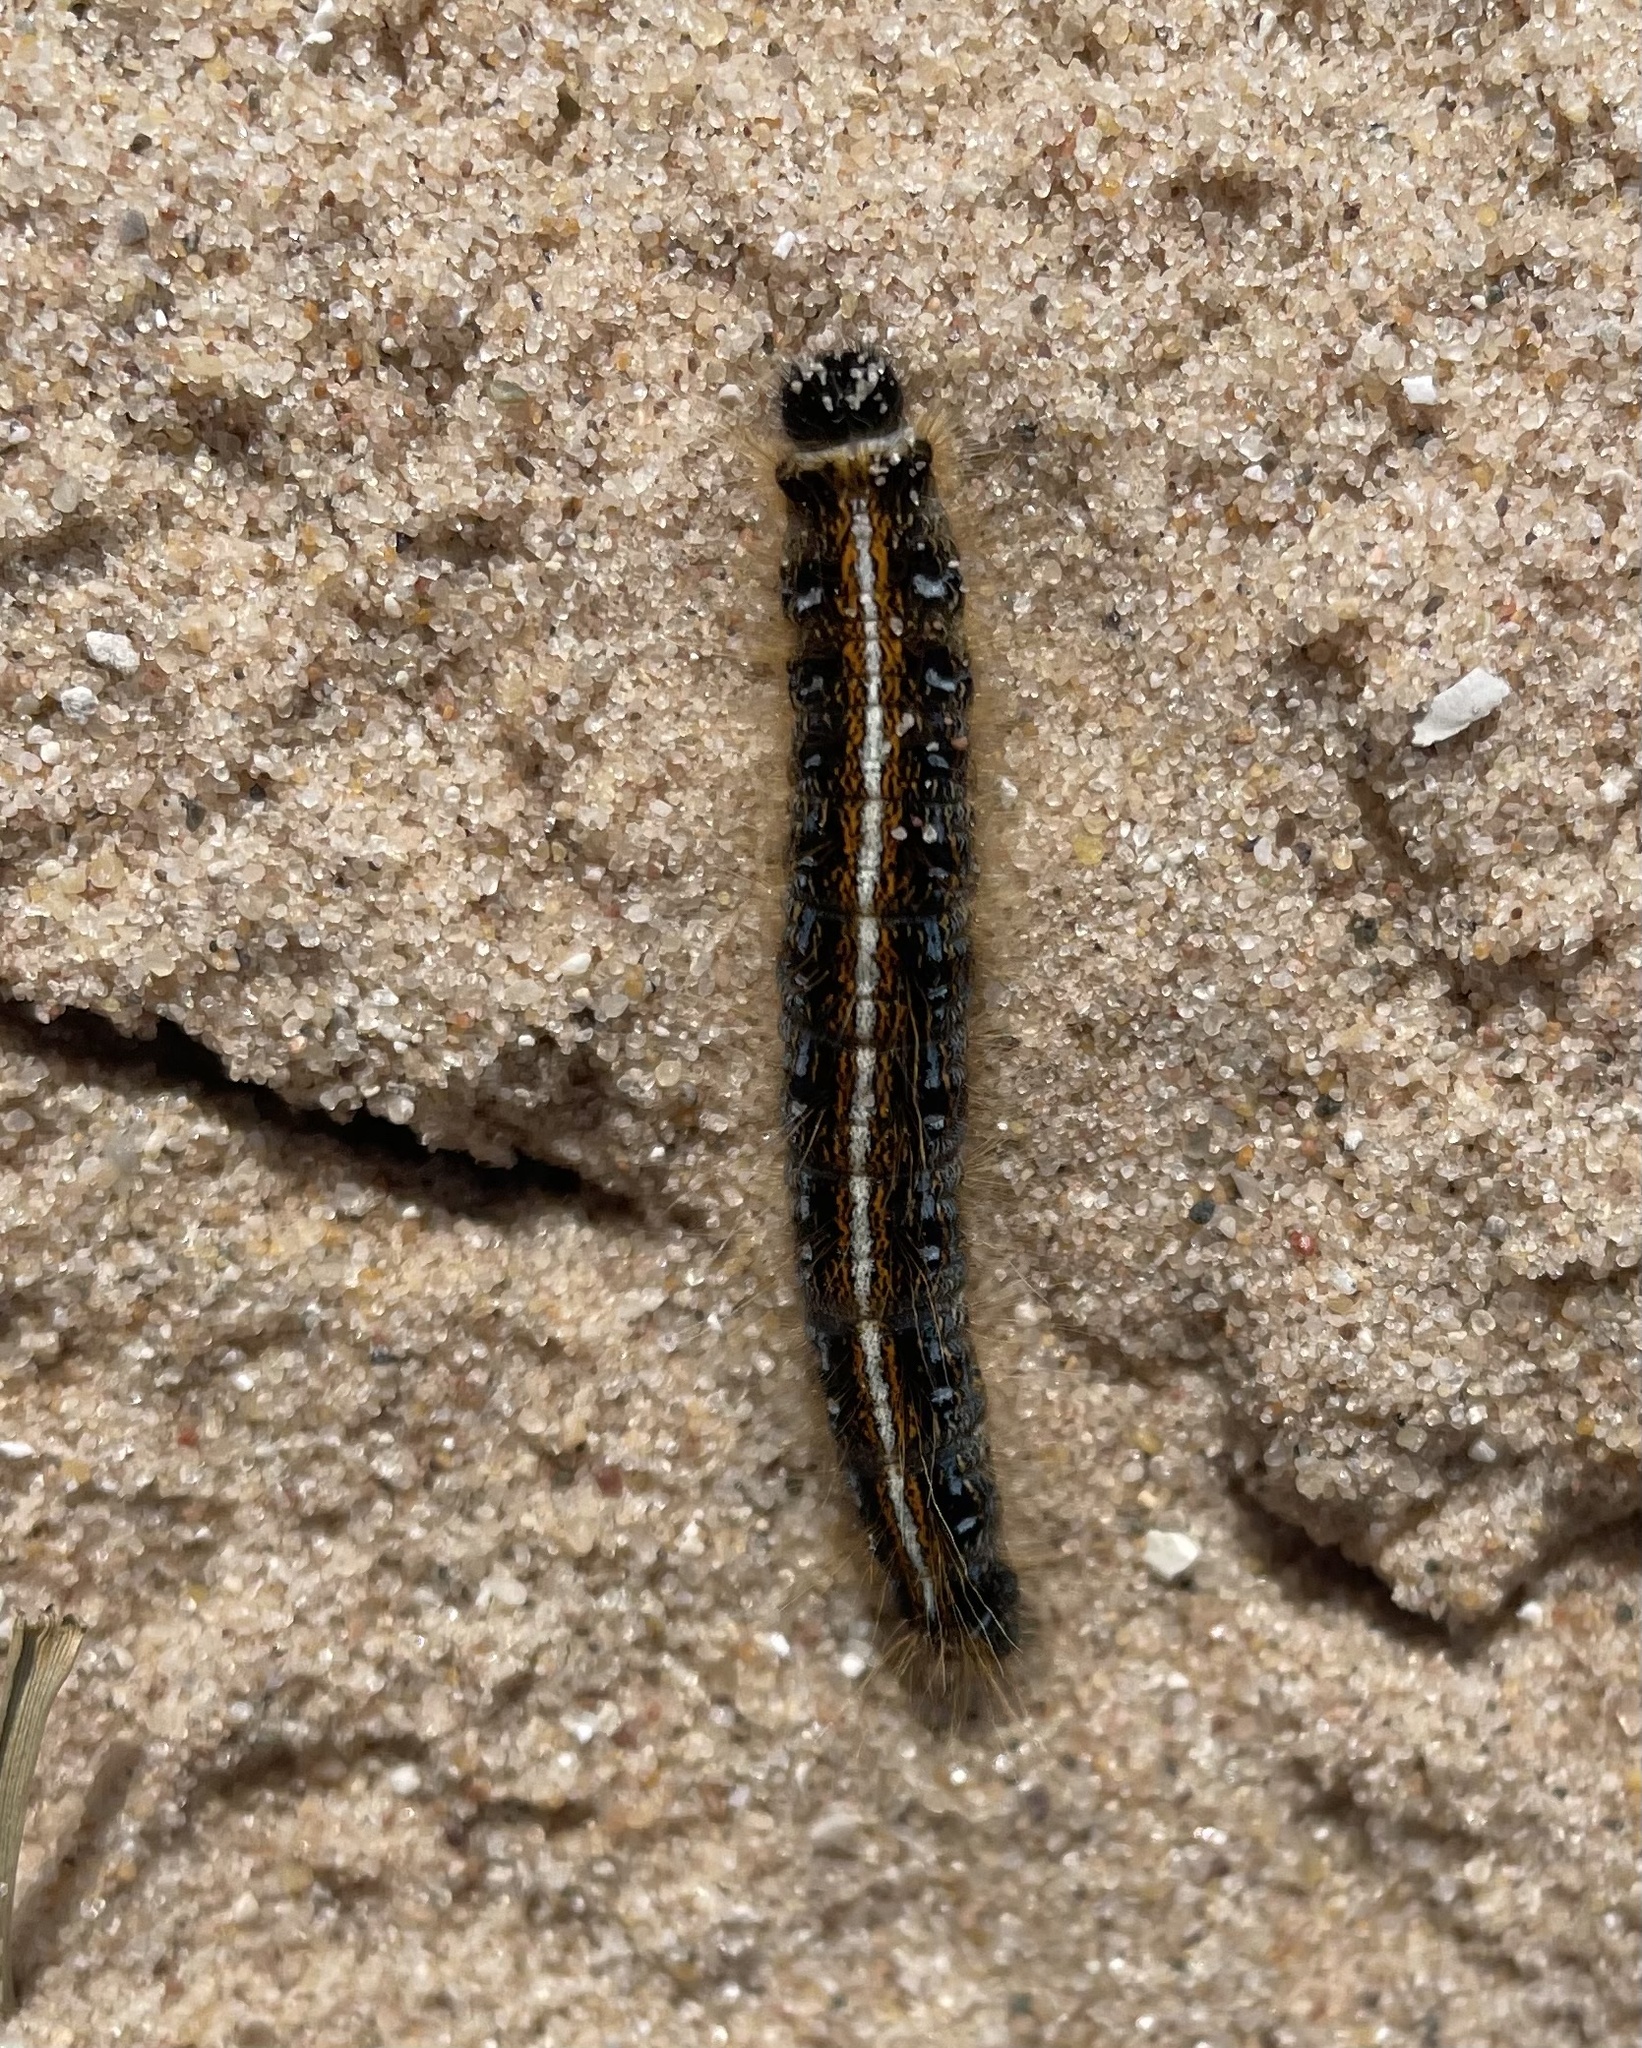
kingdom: Animalia
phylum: Arthropoda
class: Insecta
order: Lepidoptera
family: Lasiocampidae
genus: Malacosoma
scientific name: Malacosoma americana
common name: Eastern tent caterpillar moth
